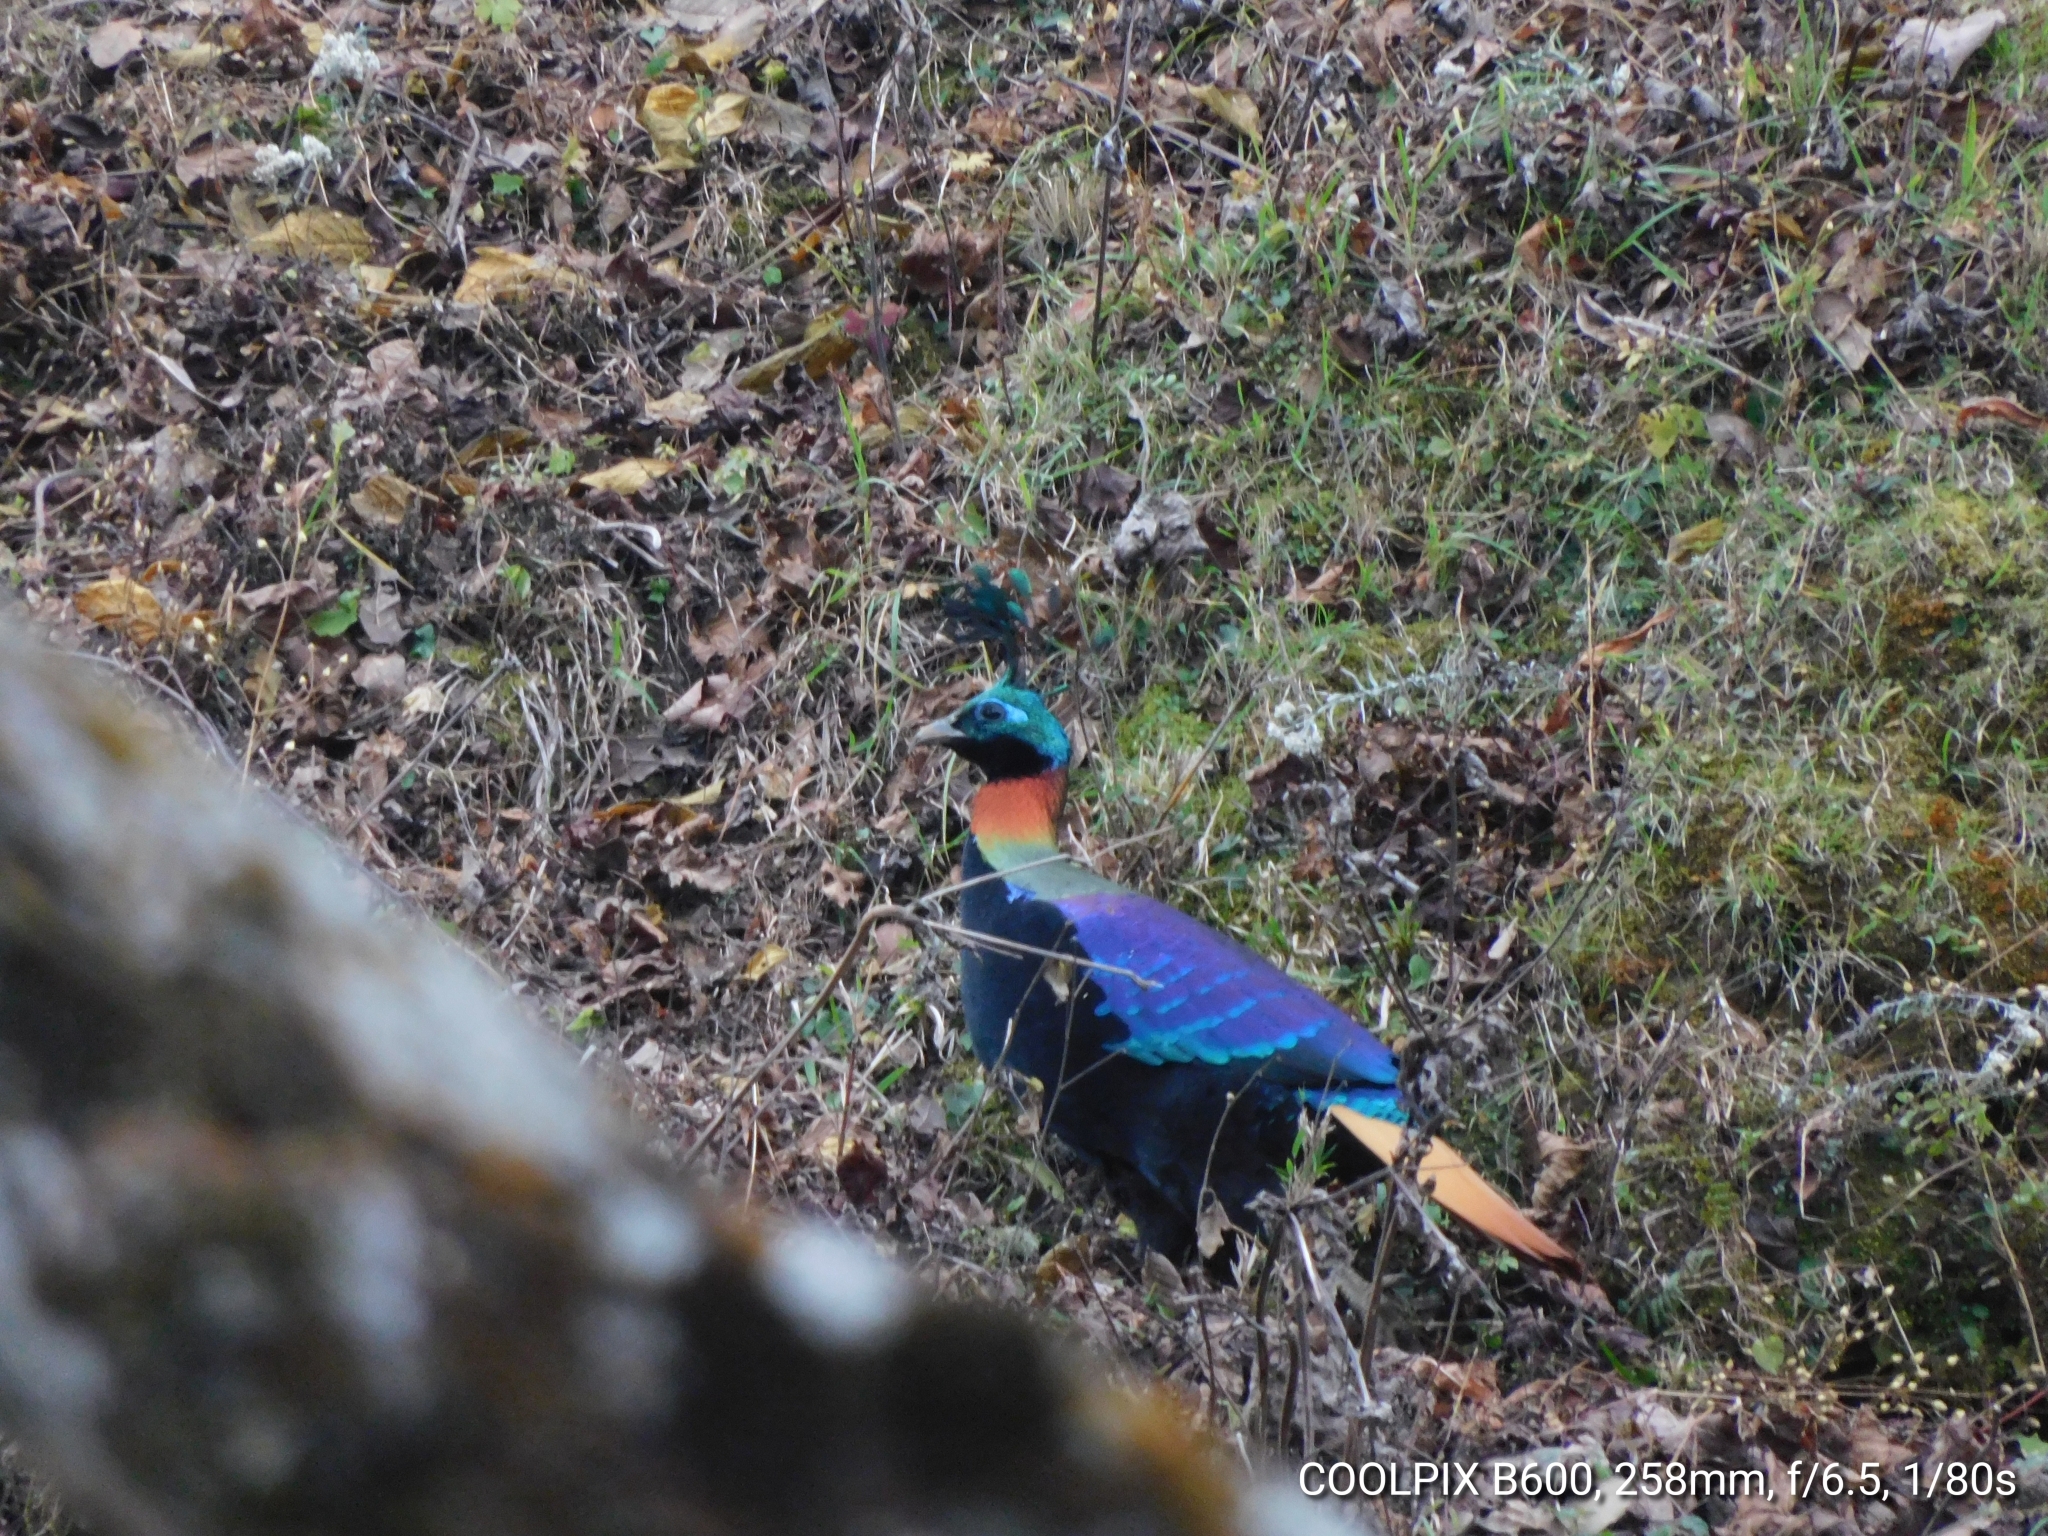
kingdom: Animalia
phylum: Chordata
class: Aves
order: Galliformes
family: Phasianidae
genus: Lophophorus
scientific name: Lophophorus impejanus
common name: Himalayan monal
